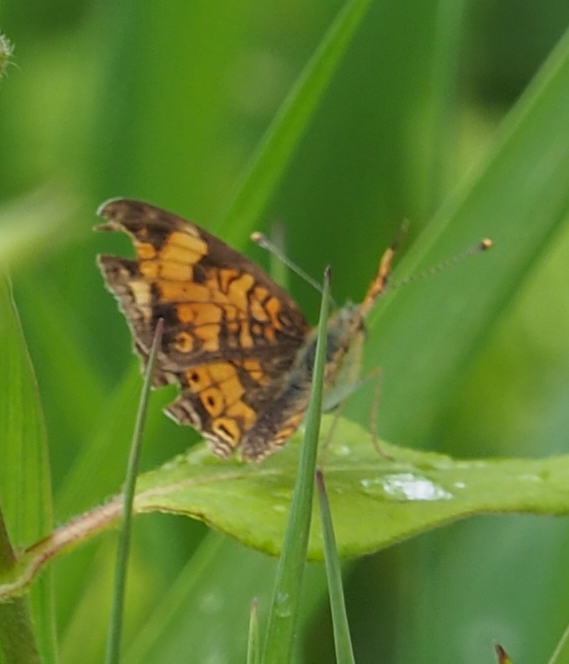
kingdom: Animalia
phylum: Arthropoda
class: Insecta
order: Lepidoptera
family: Nymphalidae
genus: Phyciodes
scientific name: Phyciodes tharos
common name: Pearl crescent
